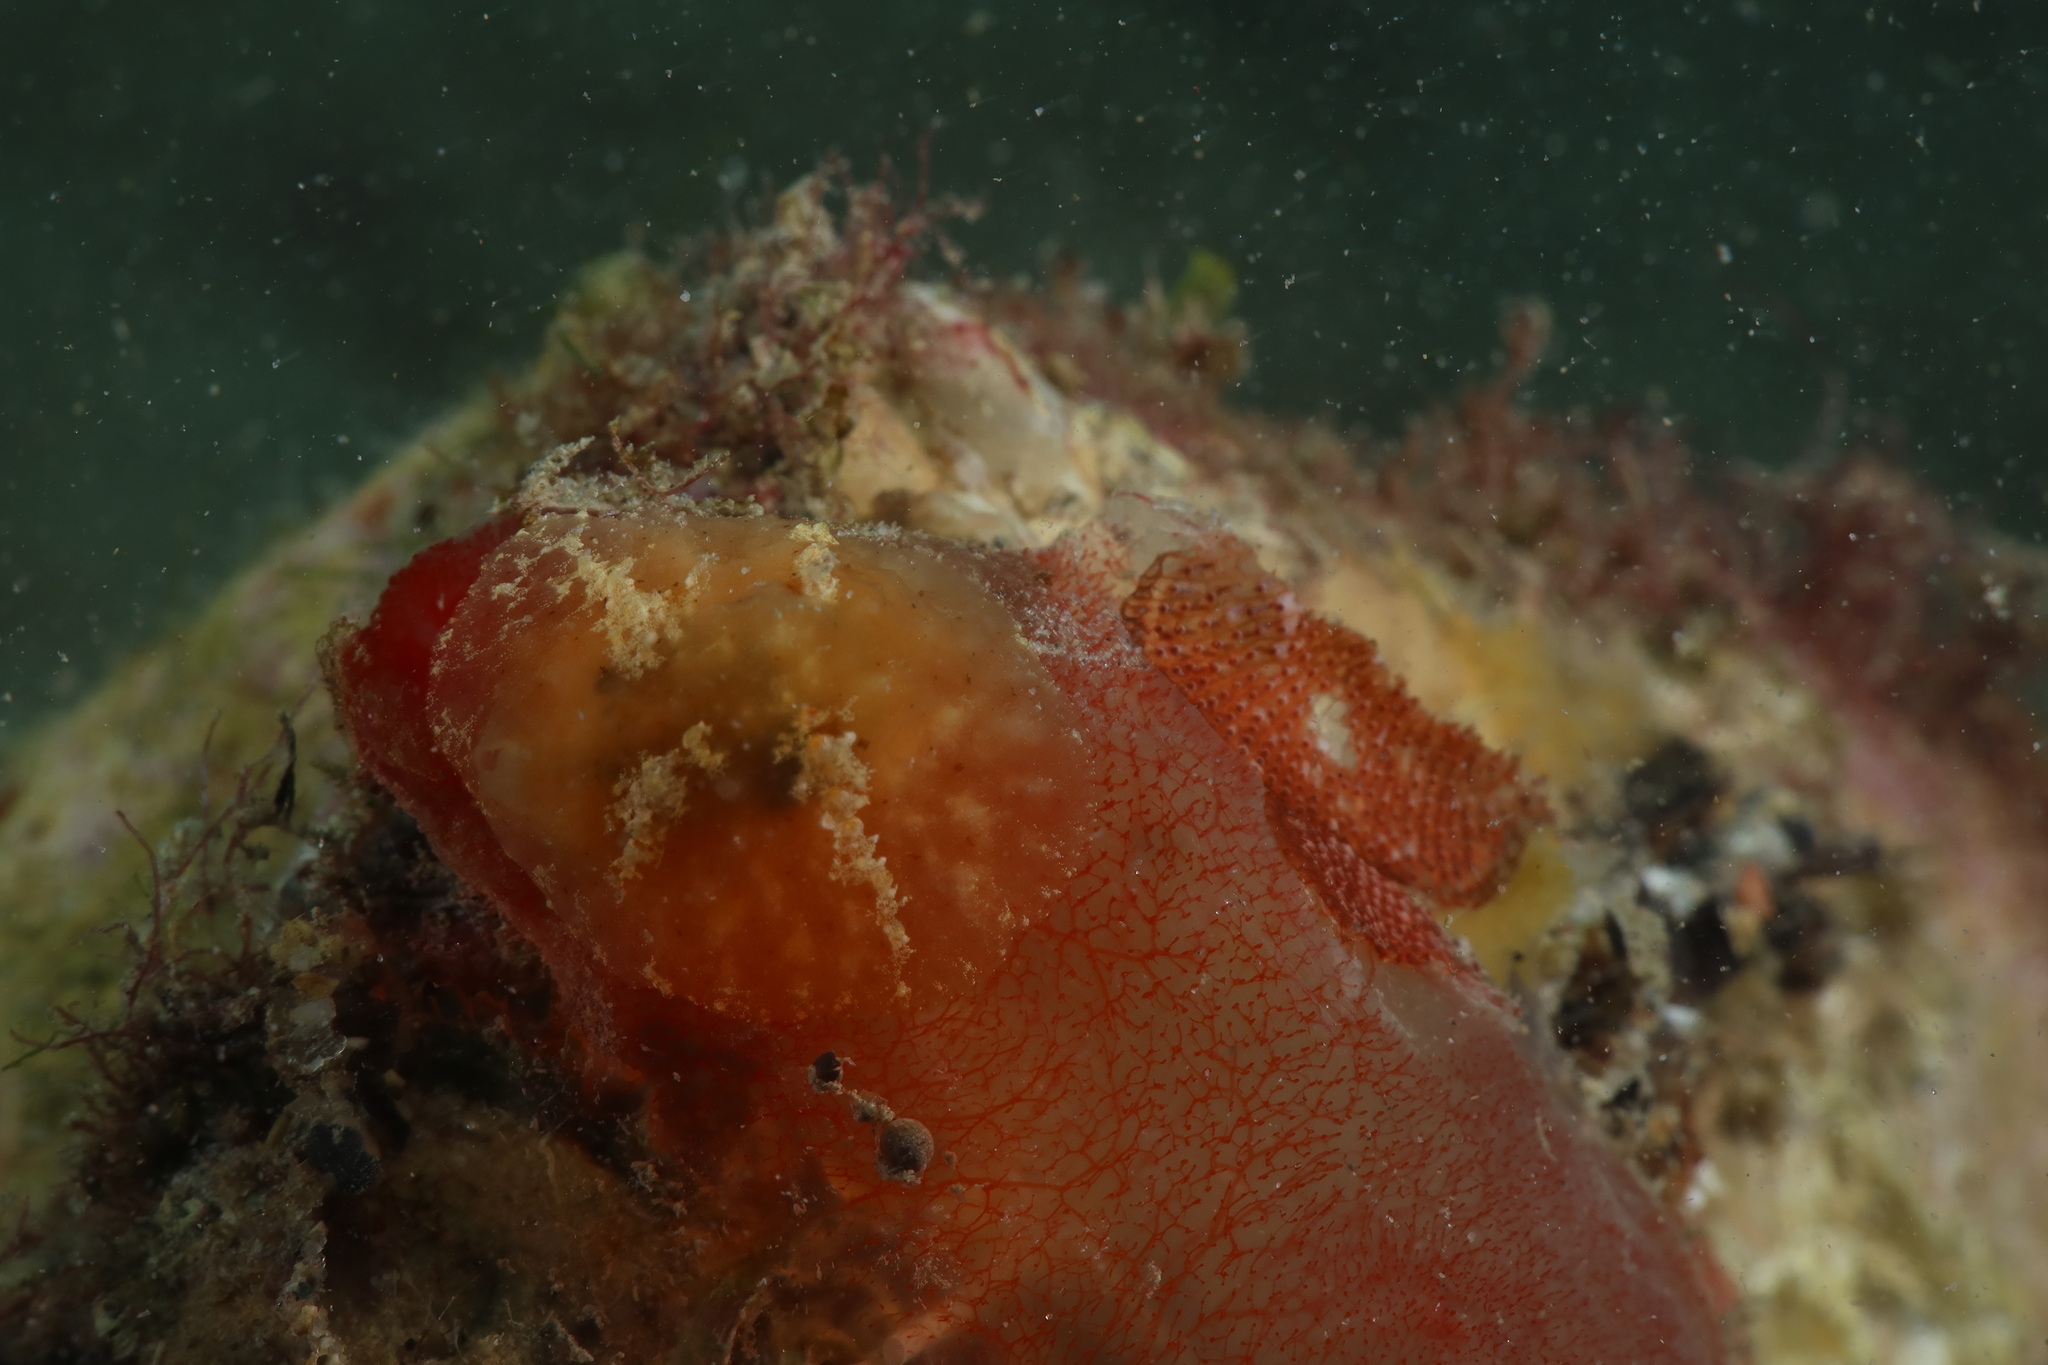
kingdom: Animalia
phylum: Mollusca
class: Gastropoda
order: Littorinimorpha
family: Velutinidae
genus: Marsenia
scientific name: Marsenia perspicua
